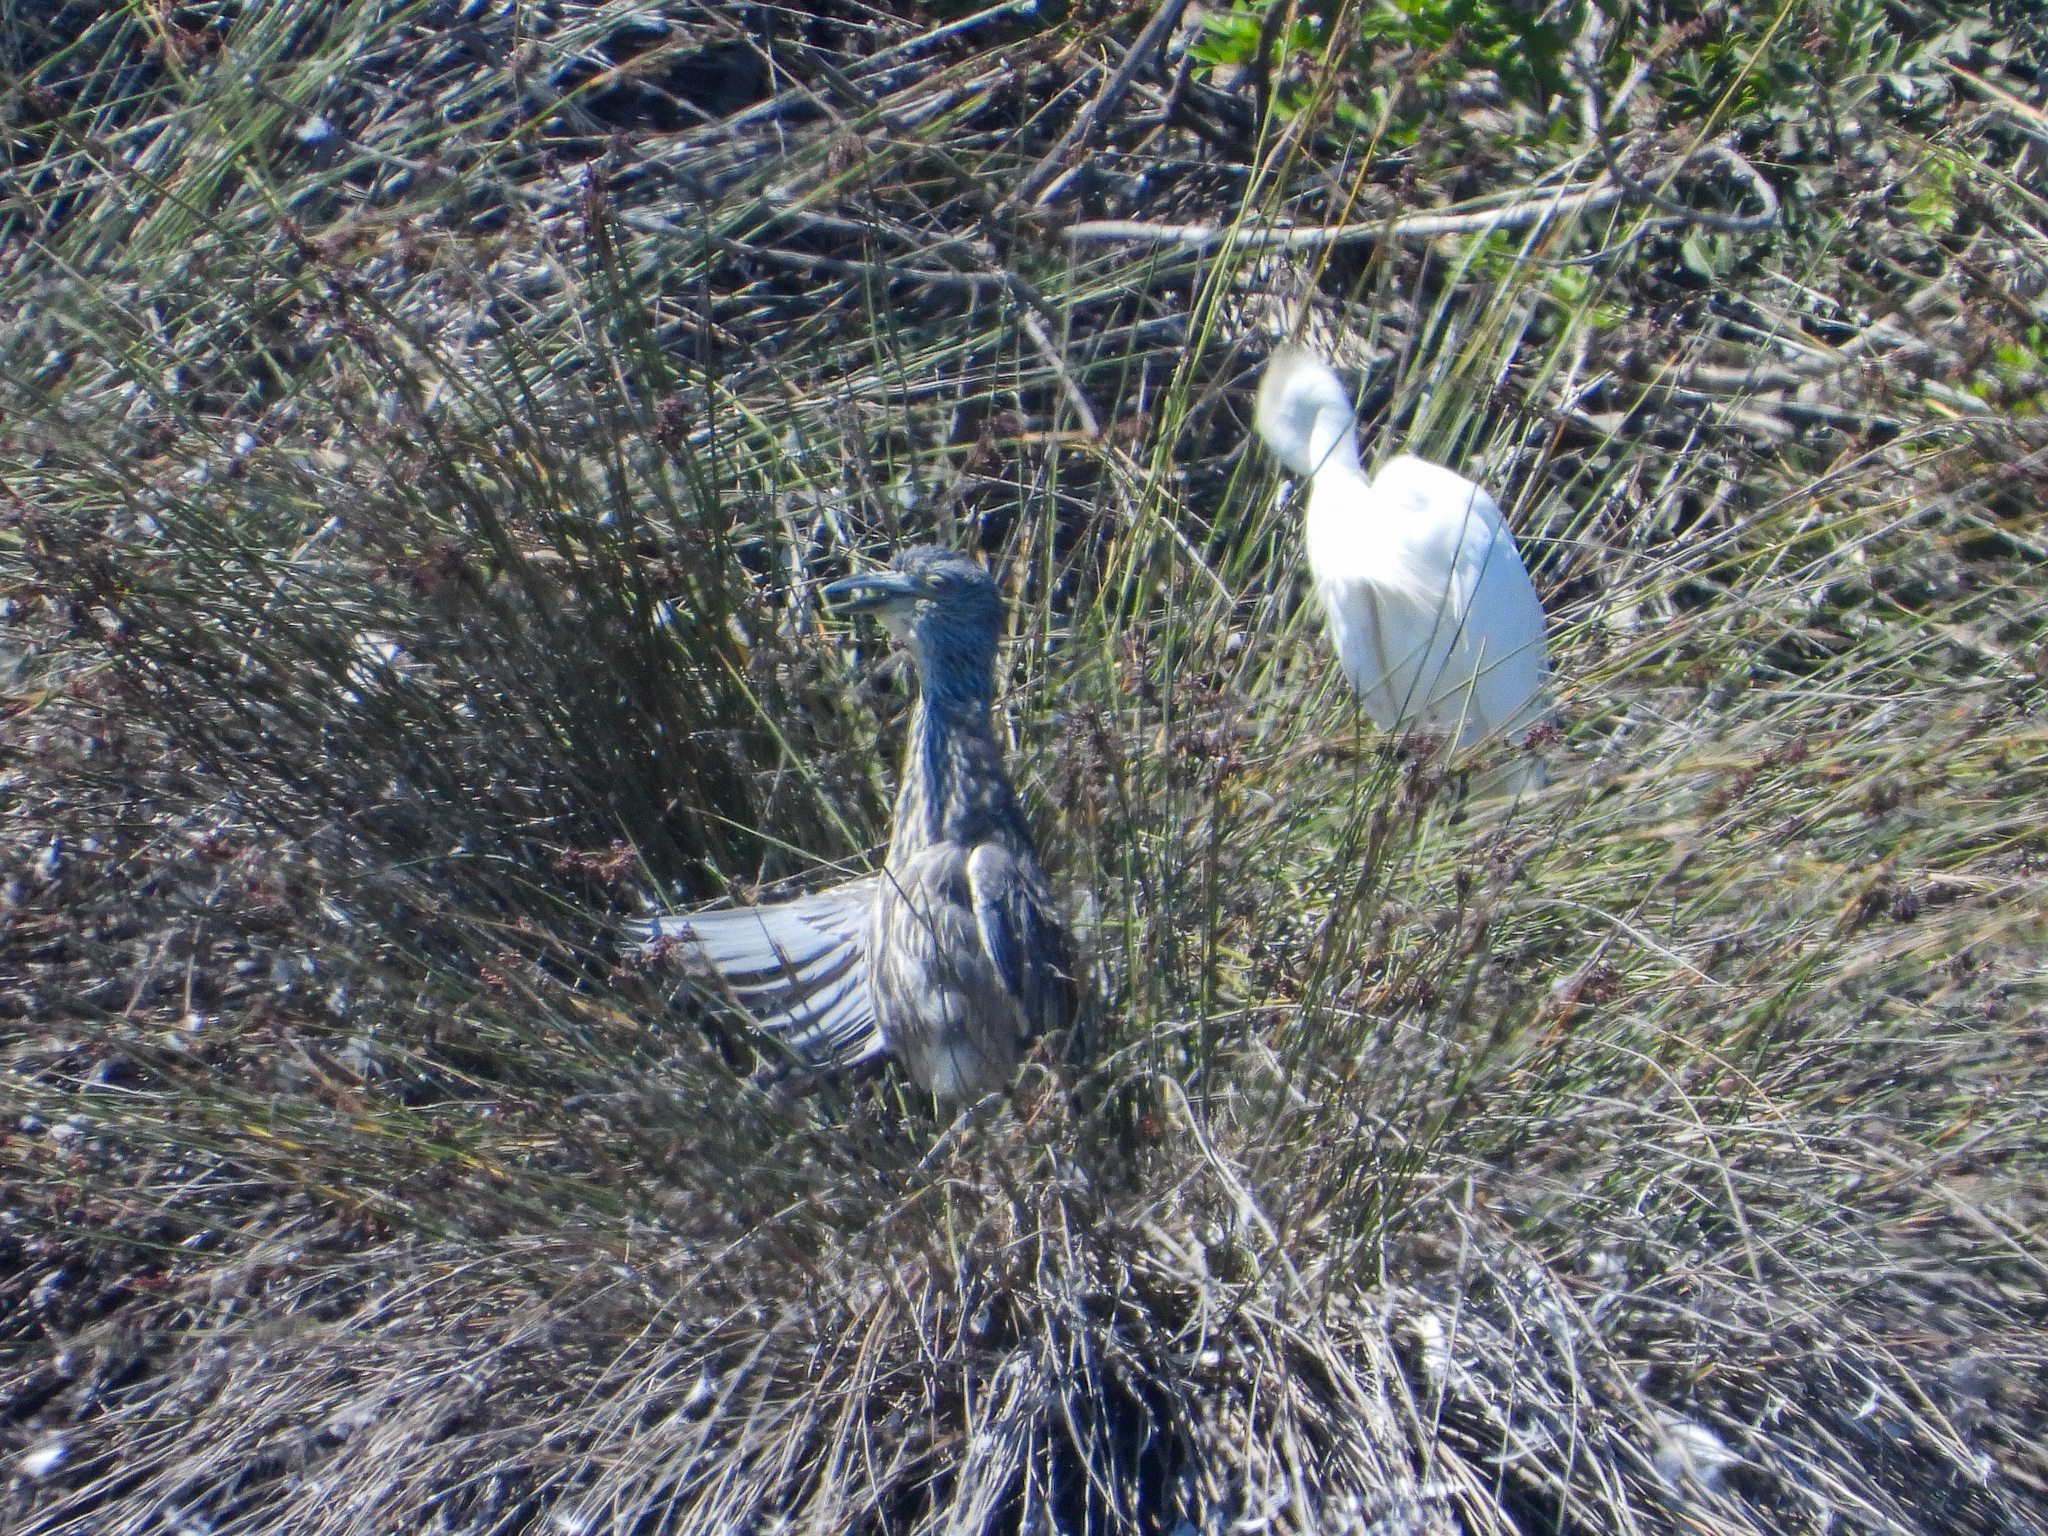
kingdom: Animalia
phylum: Chordata
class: Aves
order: Pelecaniformes
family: Ardeidae
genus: Nyctanassa
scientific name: Nyctanassa violacea
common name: Yellow-crowned night heron
